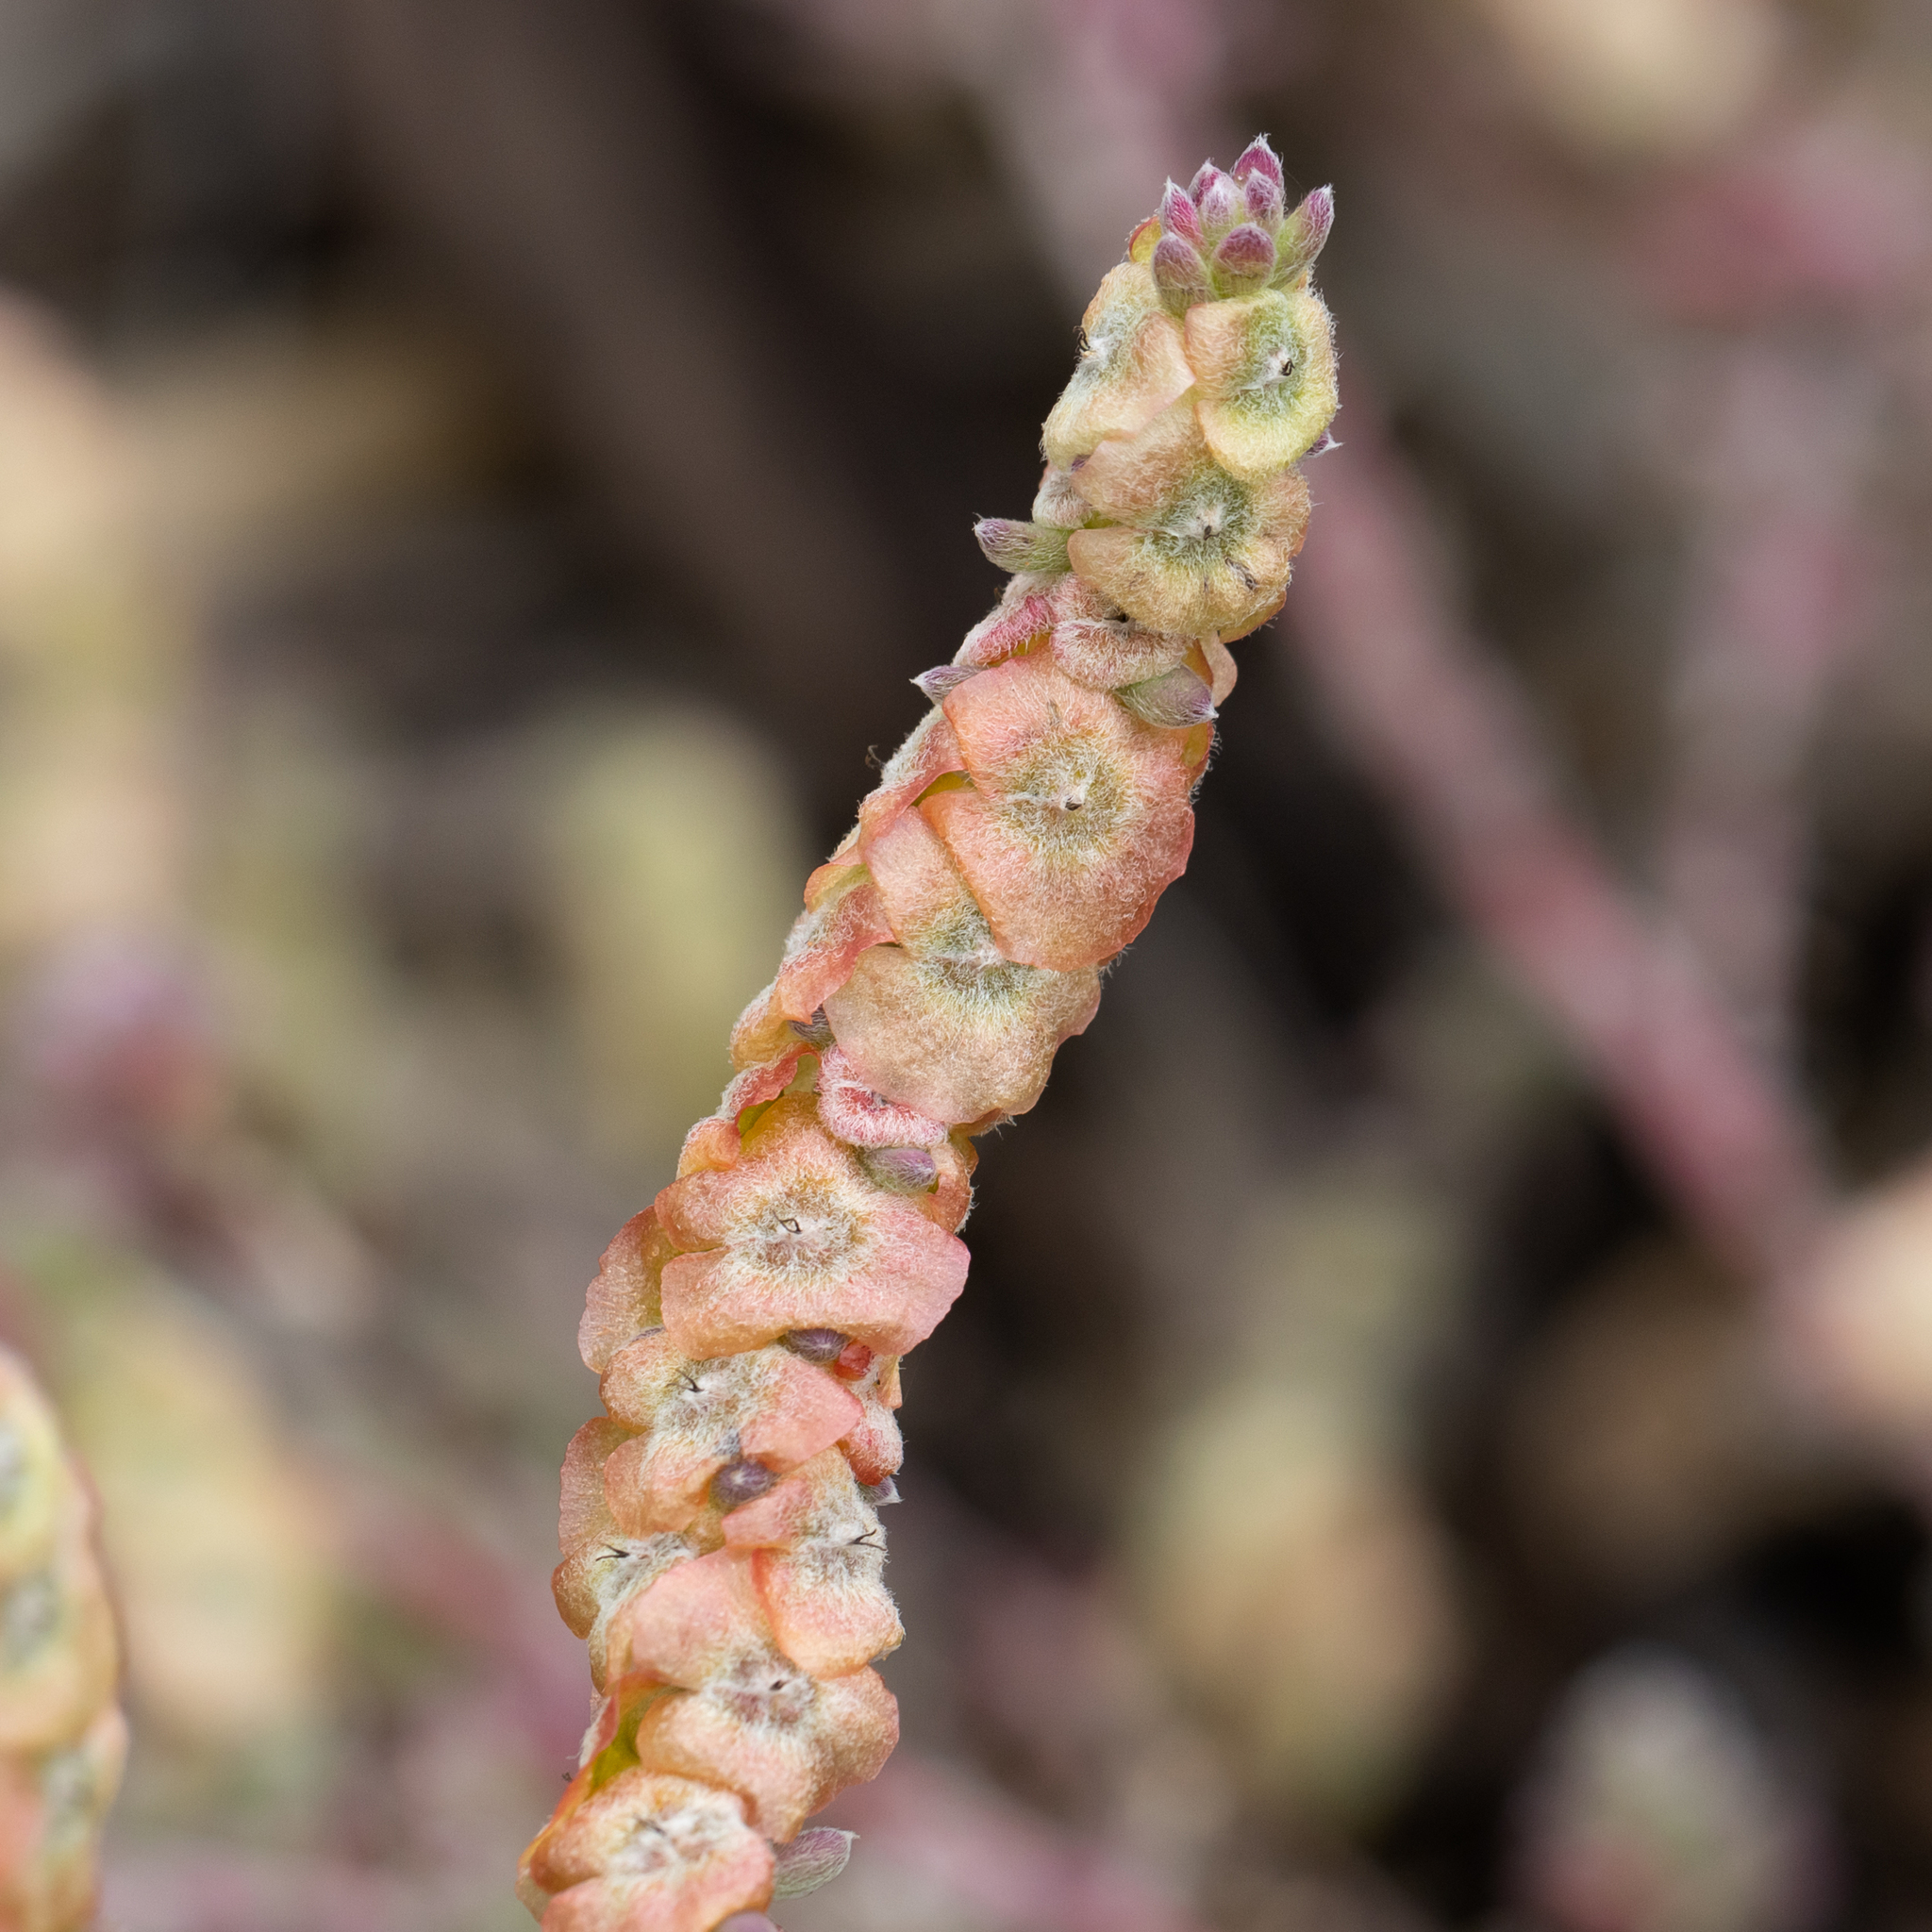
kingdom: Plantae
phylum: Tracheophyta
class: Magnoliopsida
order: Caryophyllales
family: Amaranthaceae
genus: Maireana
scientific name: Maireana trichoptera
